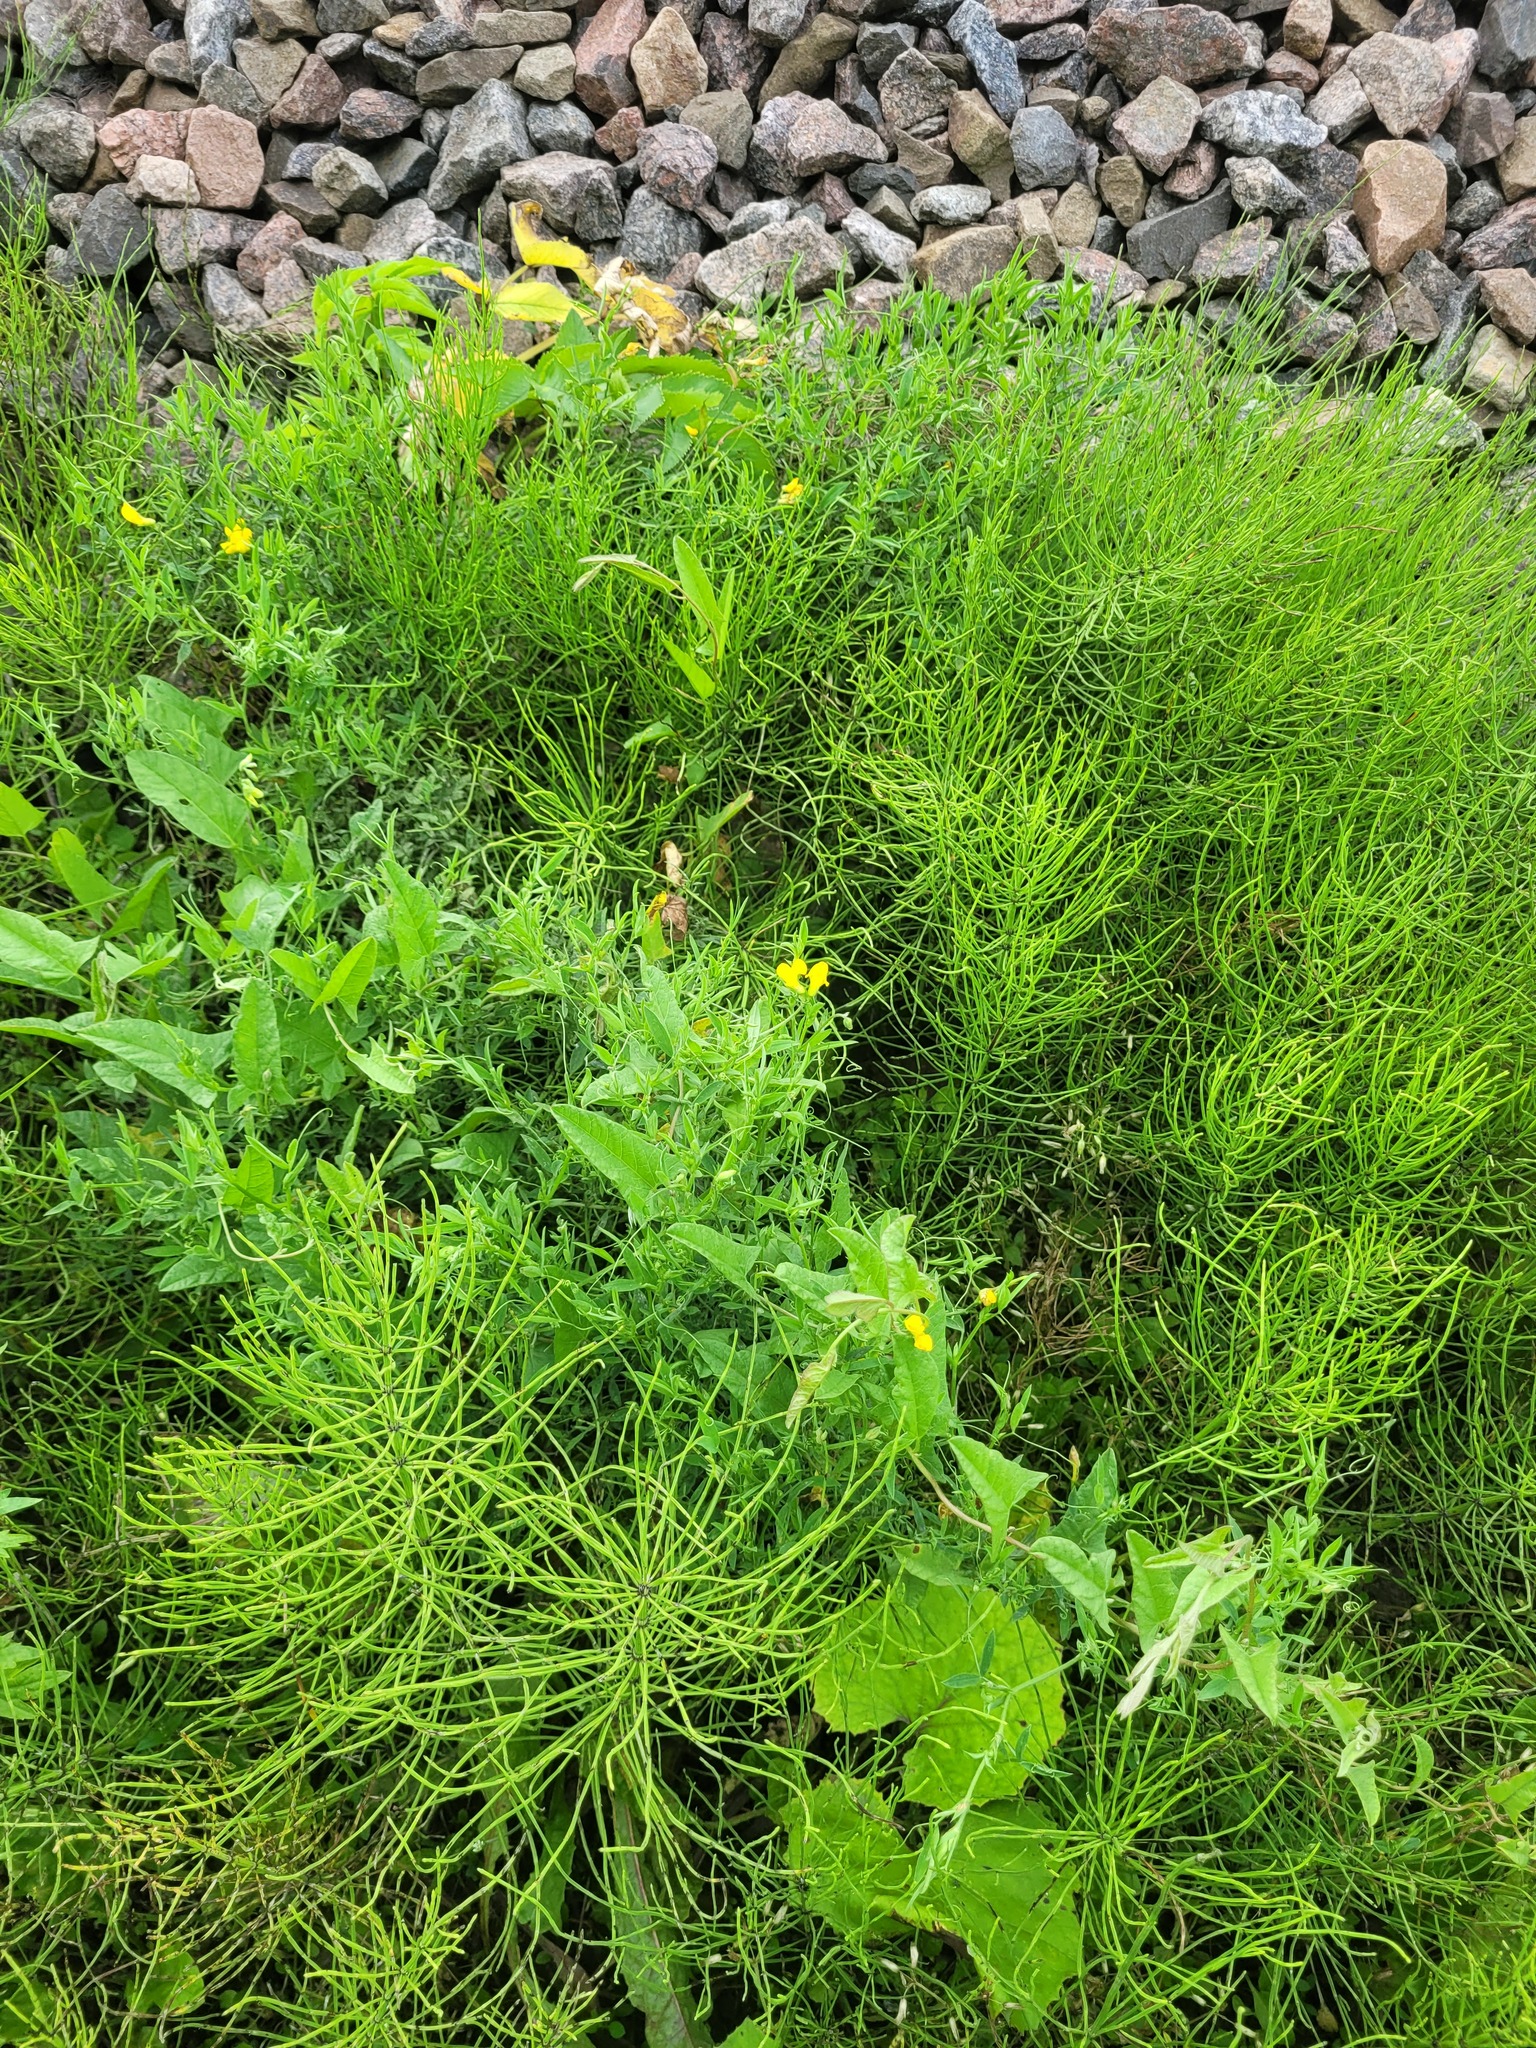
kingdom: Plantae
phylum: Tracheophyta
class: Magnoliopsida
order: Fabales
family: Fabaceae
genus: Lathyrus
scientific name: Lathyrus pratensis
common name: Meadow vetchling
